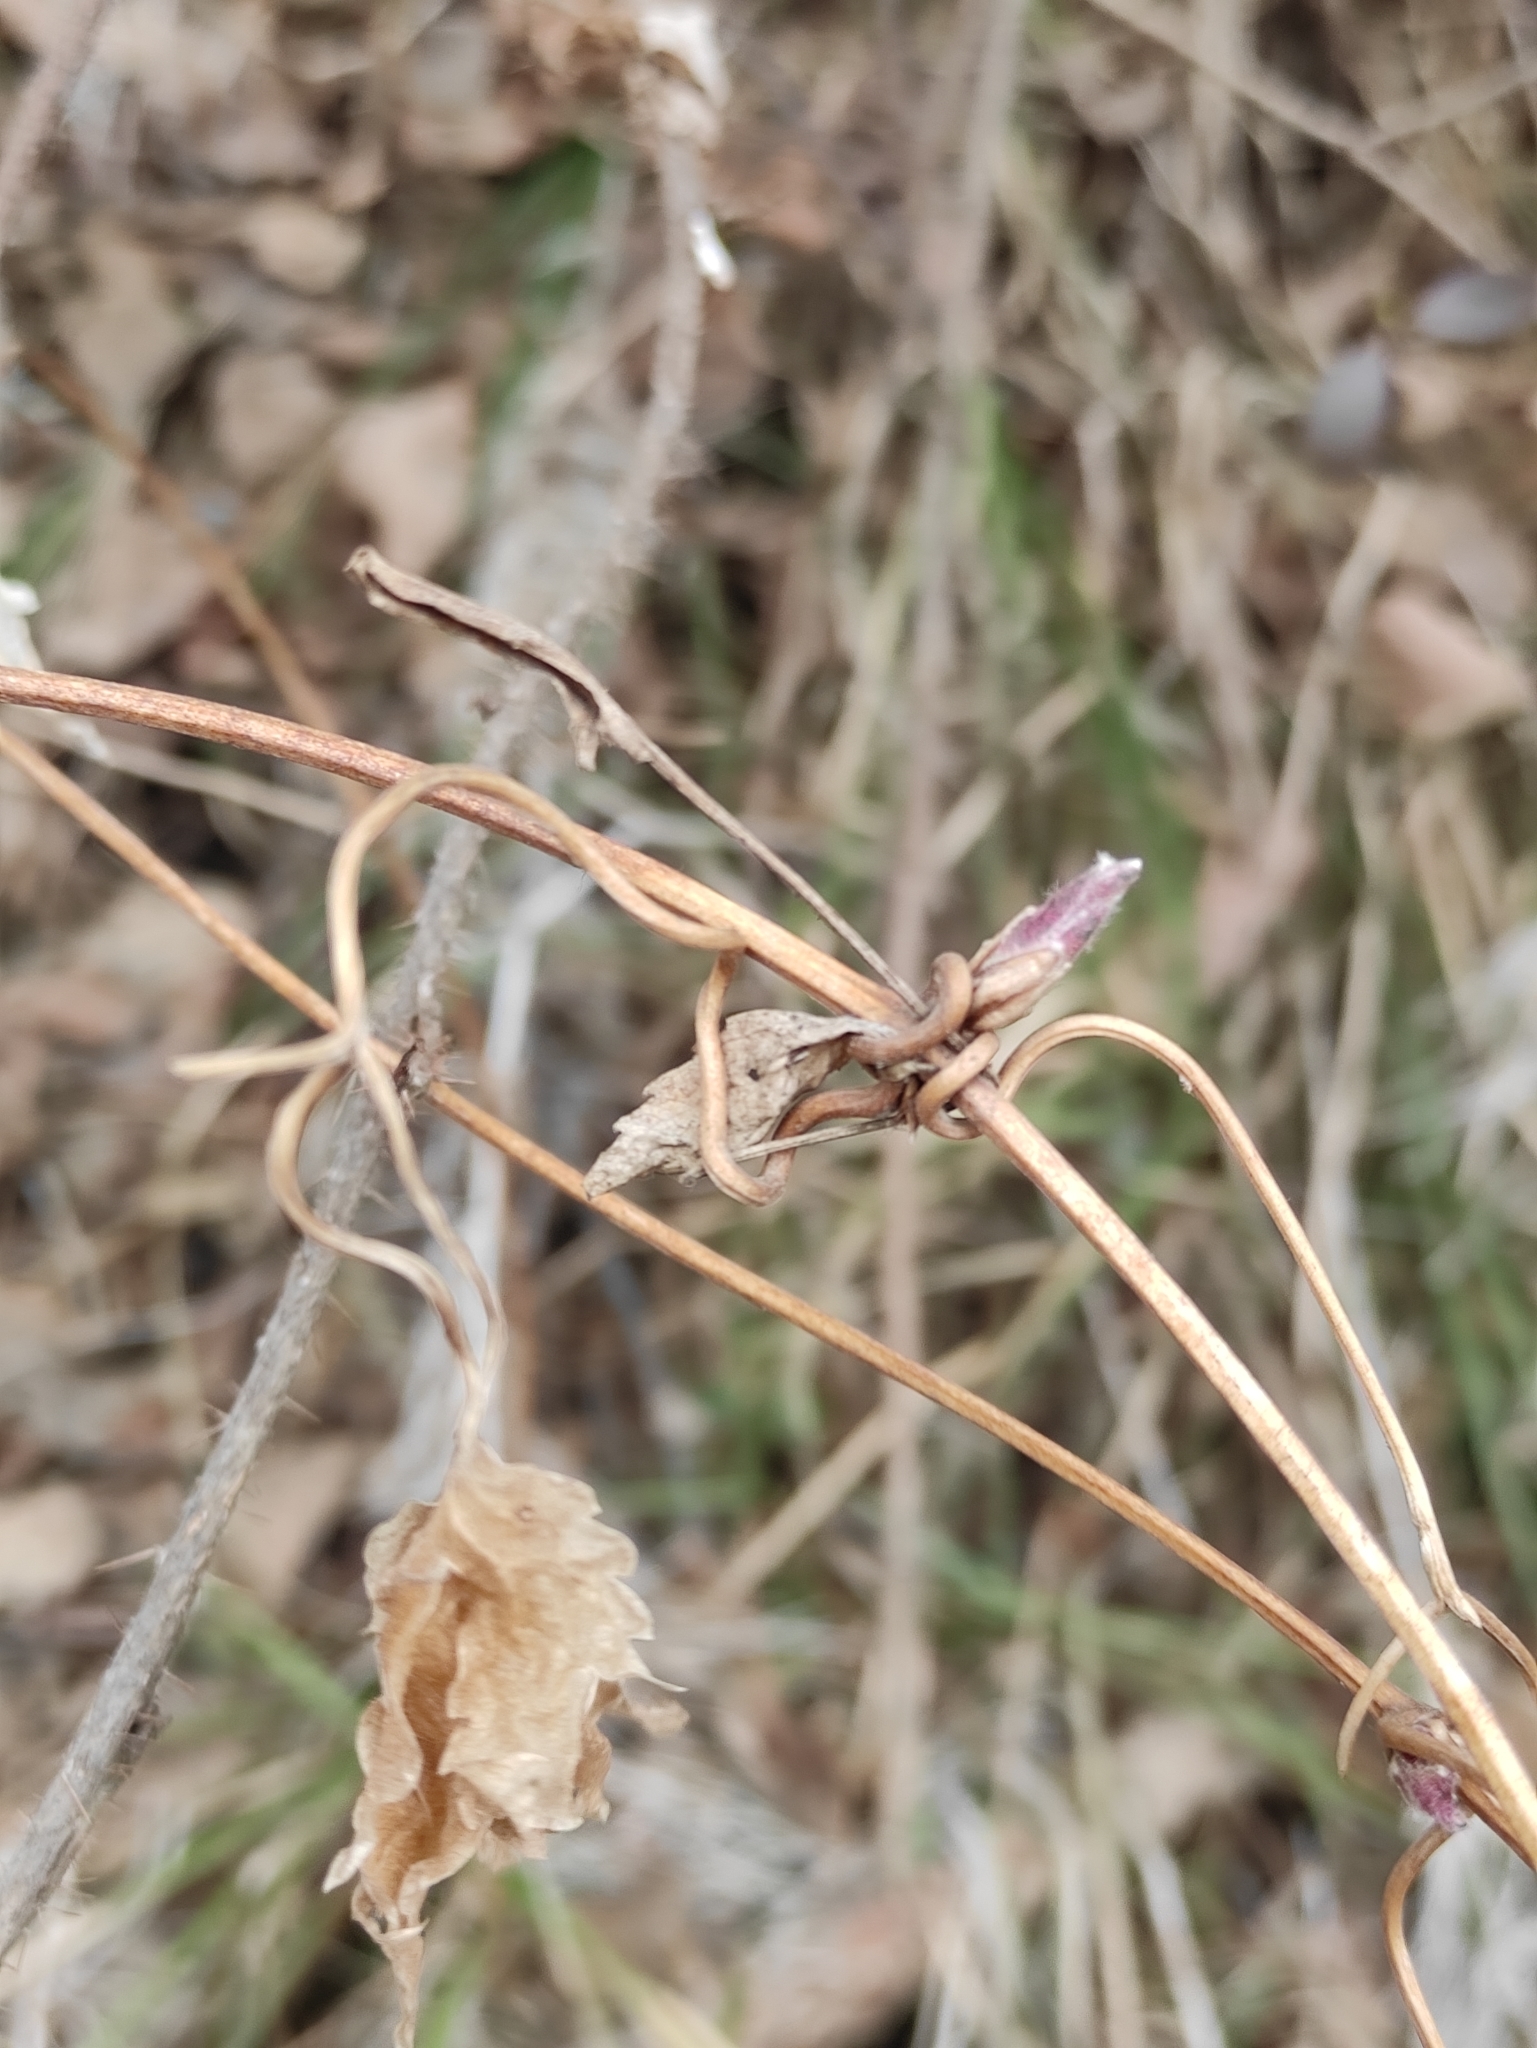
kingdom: Plantae
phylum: Tracheophyta
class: Magnoliopsida
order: Ranunculales
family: Ranunculaceae
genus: Clematis
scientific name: Clematis sibirica
